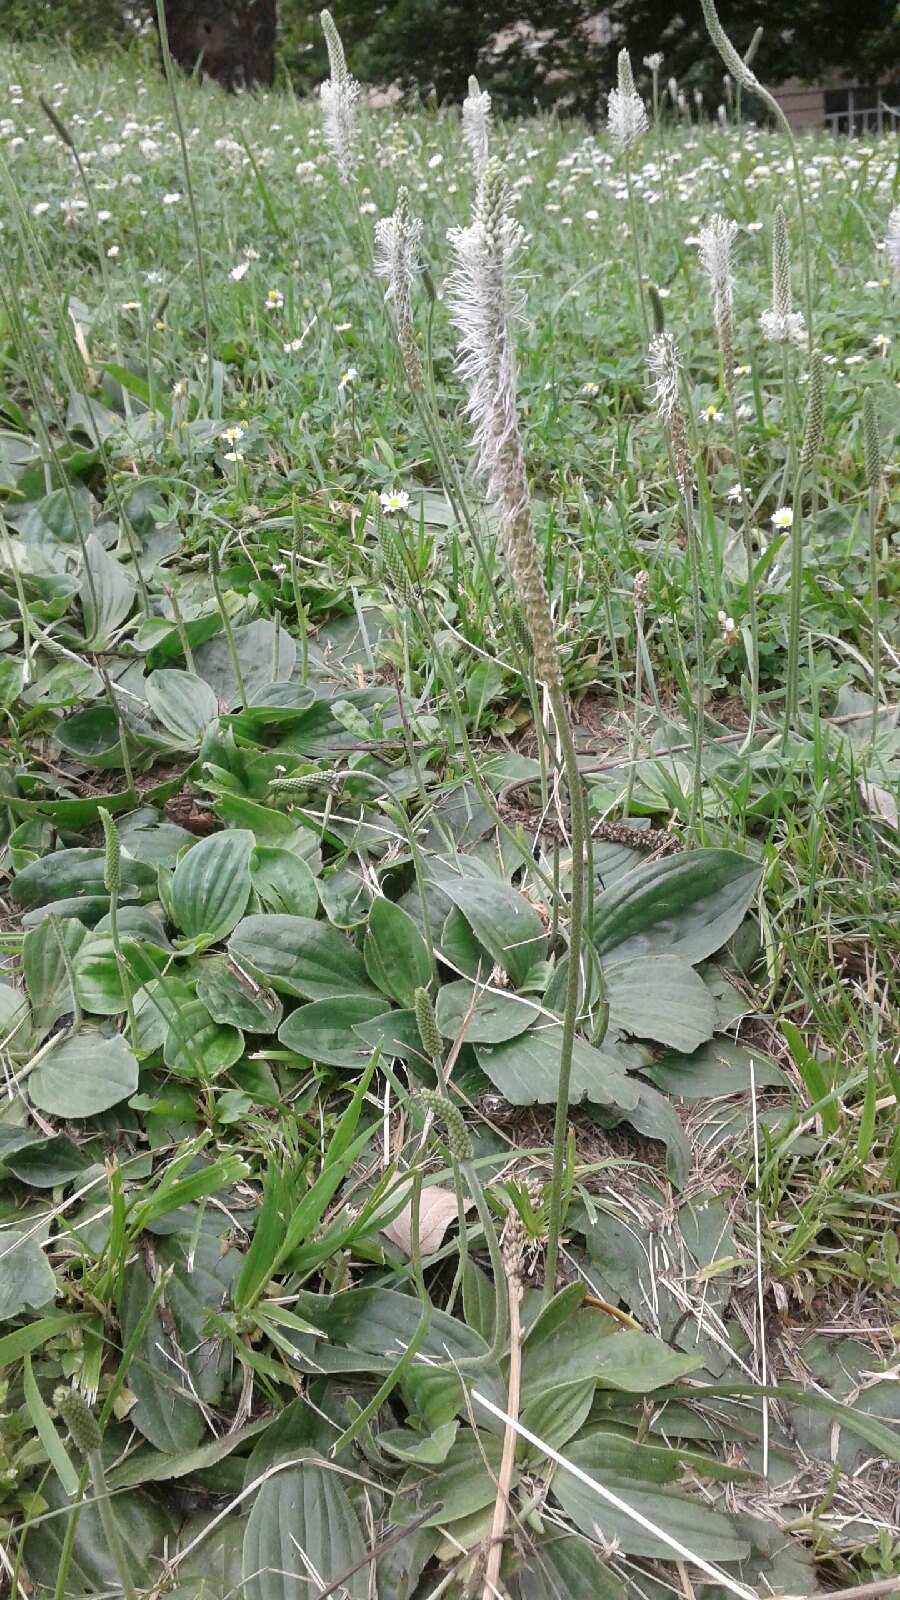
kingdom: Plantae
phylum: Tracheophyta
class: Magnoliopsida
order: Lamiales
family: Plantaginaceae
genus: Plantago
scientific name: Plantago media
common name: Hoary plantain
